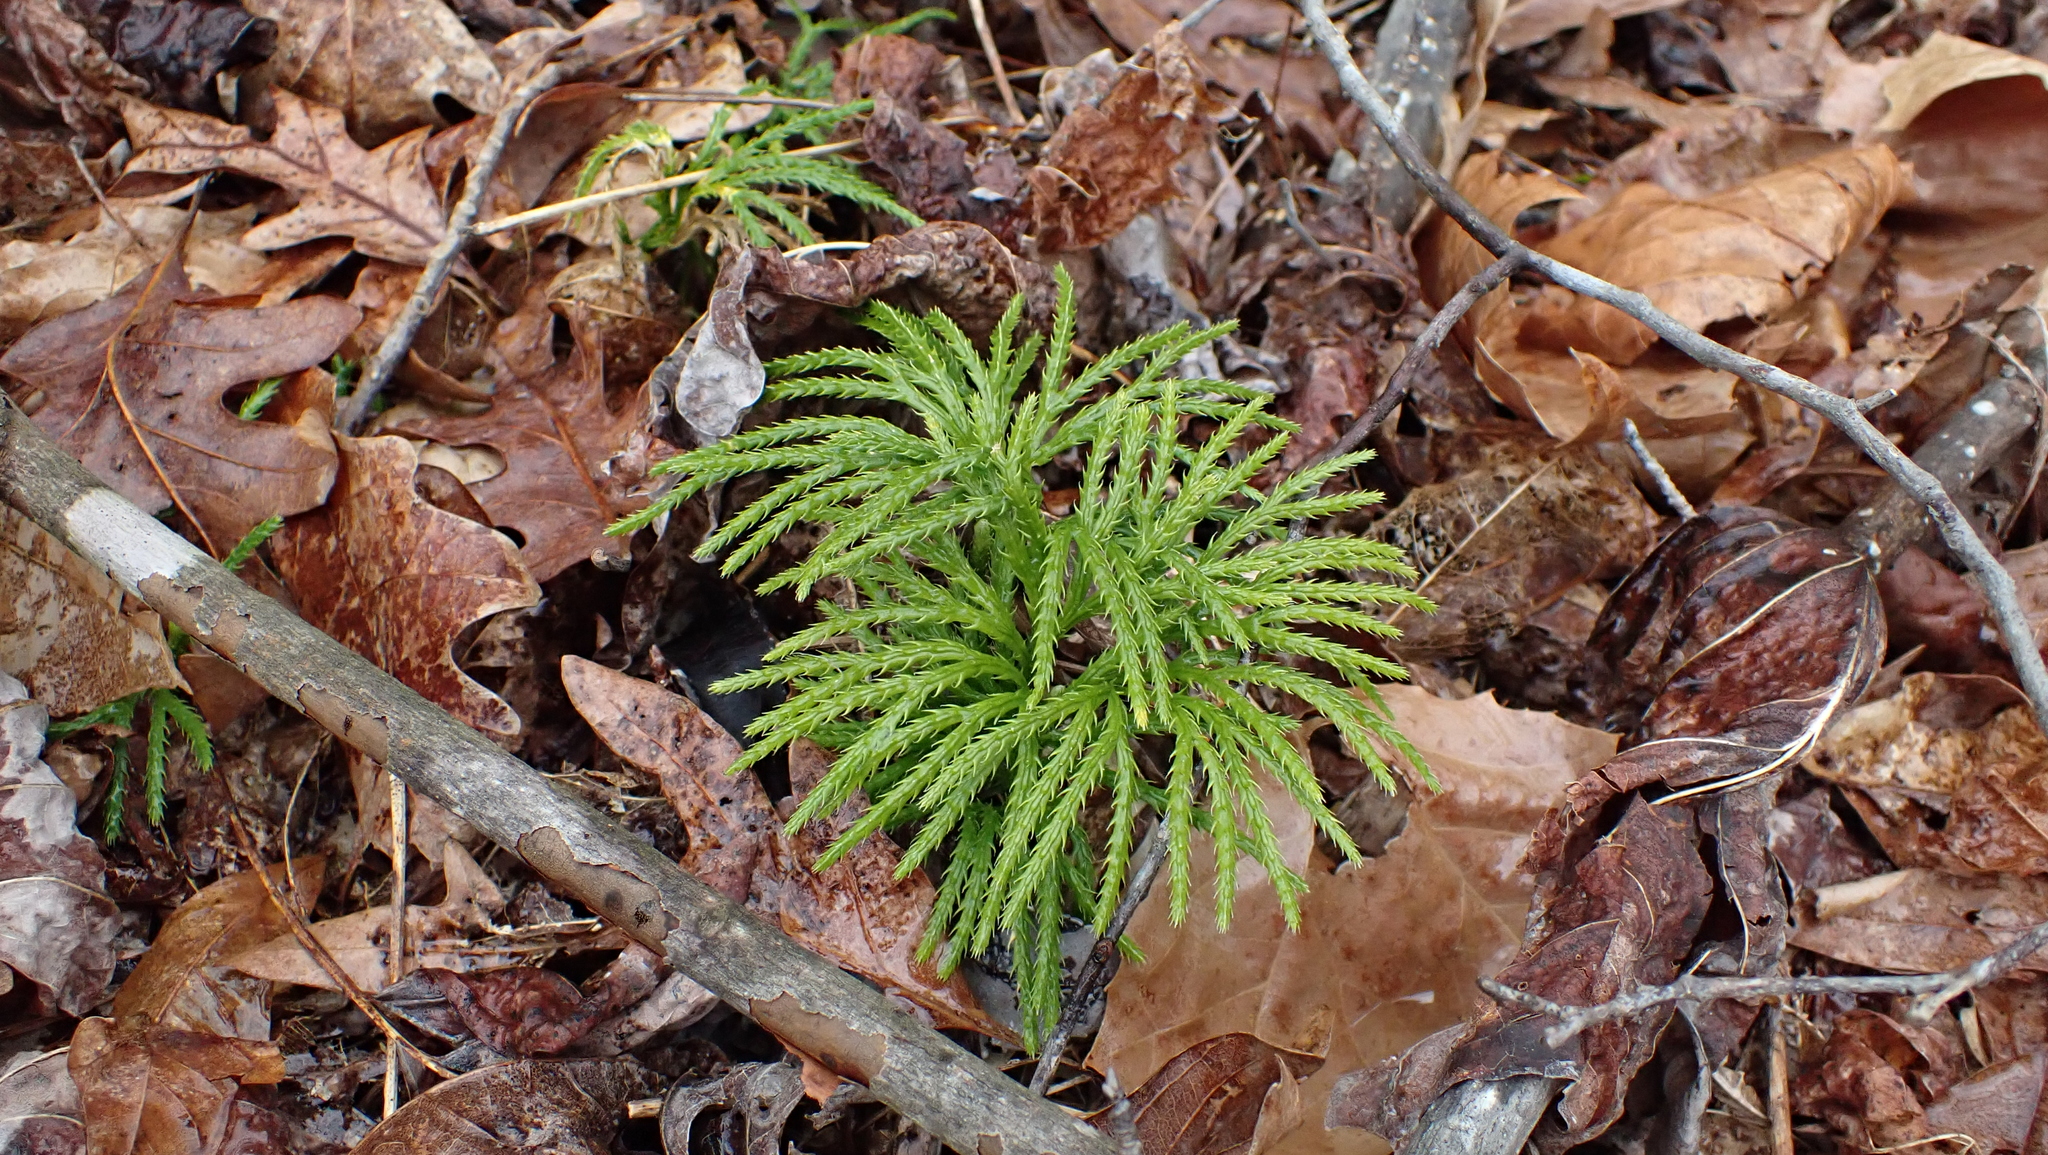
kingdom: Plantae
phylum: Tracheophyta
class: Lycopodiopsida
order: Lycopodiales
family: Lycopodiaceae
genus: Diphasiastrum
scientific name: Diphasiastrum digitatum
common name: Southern running-pine
